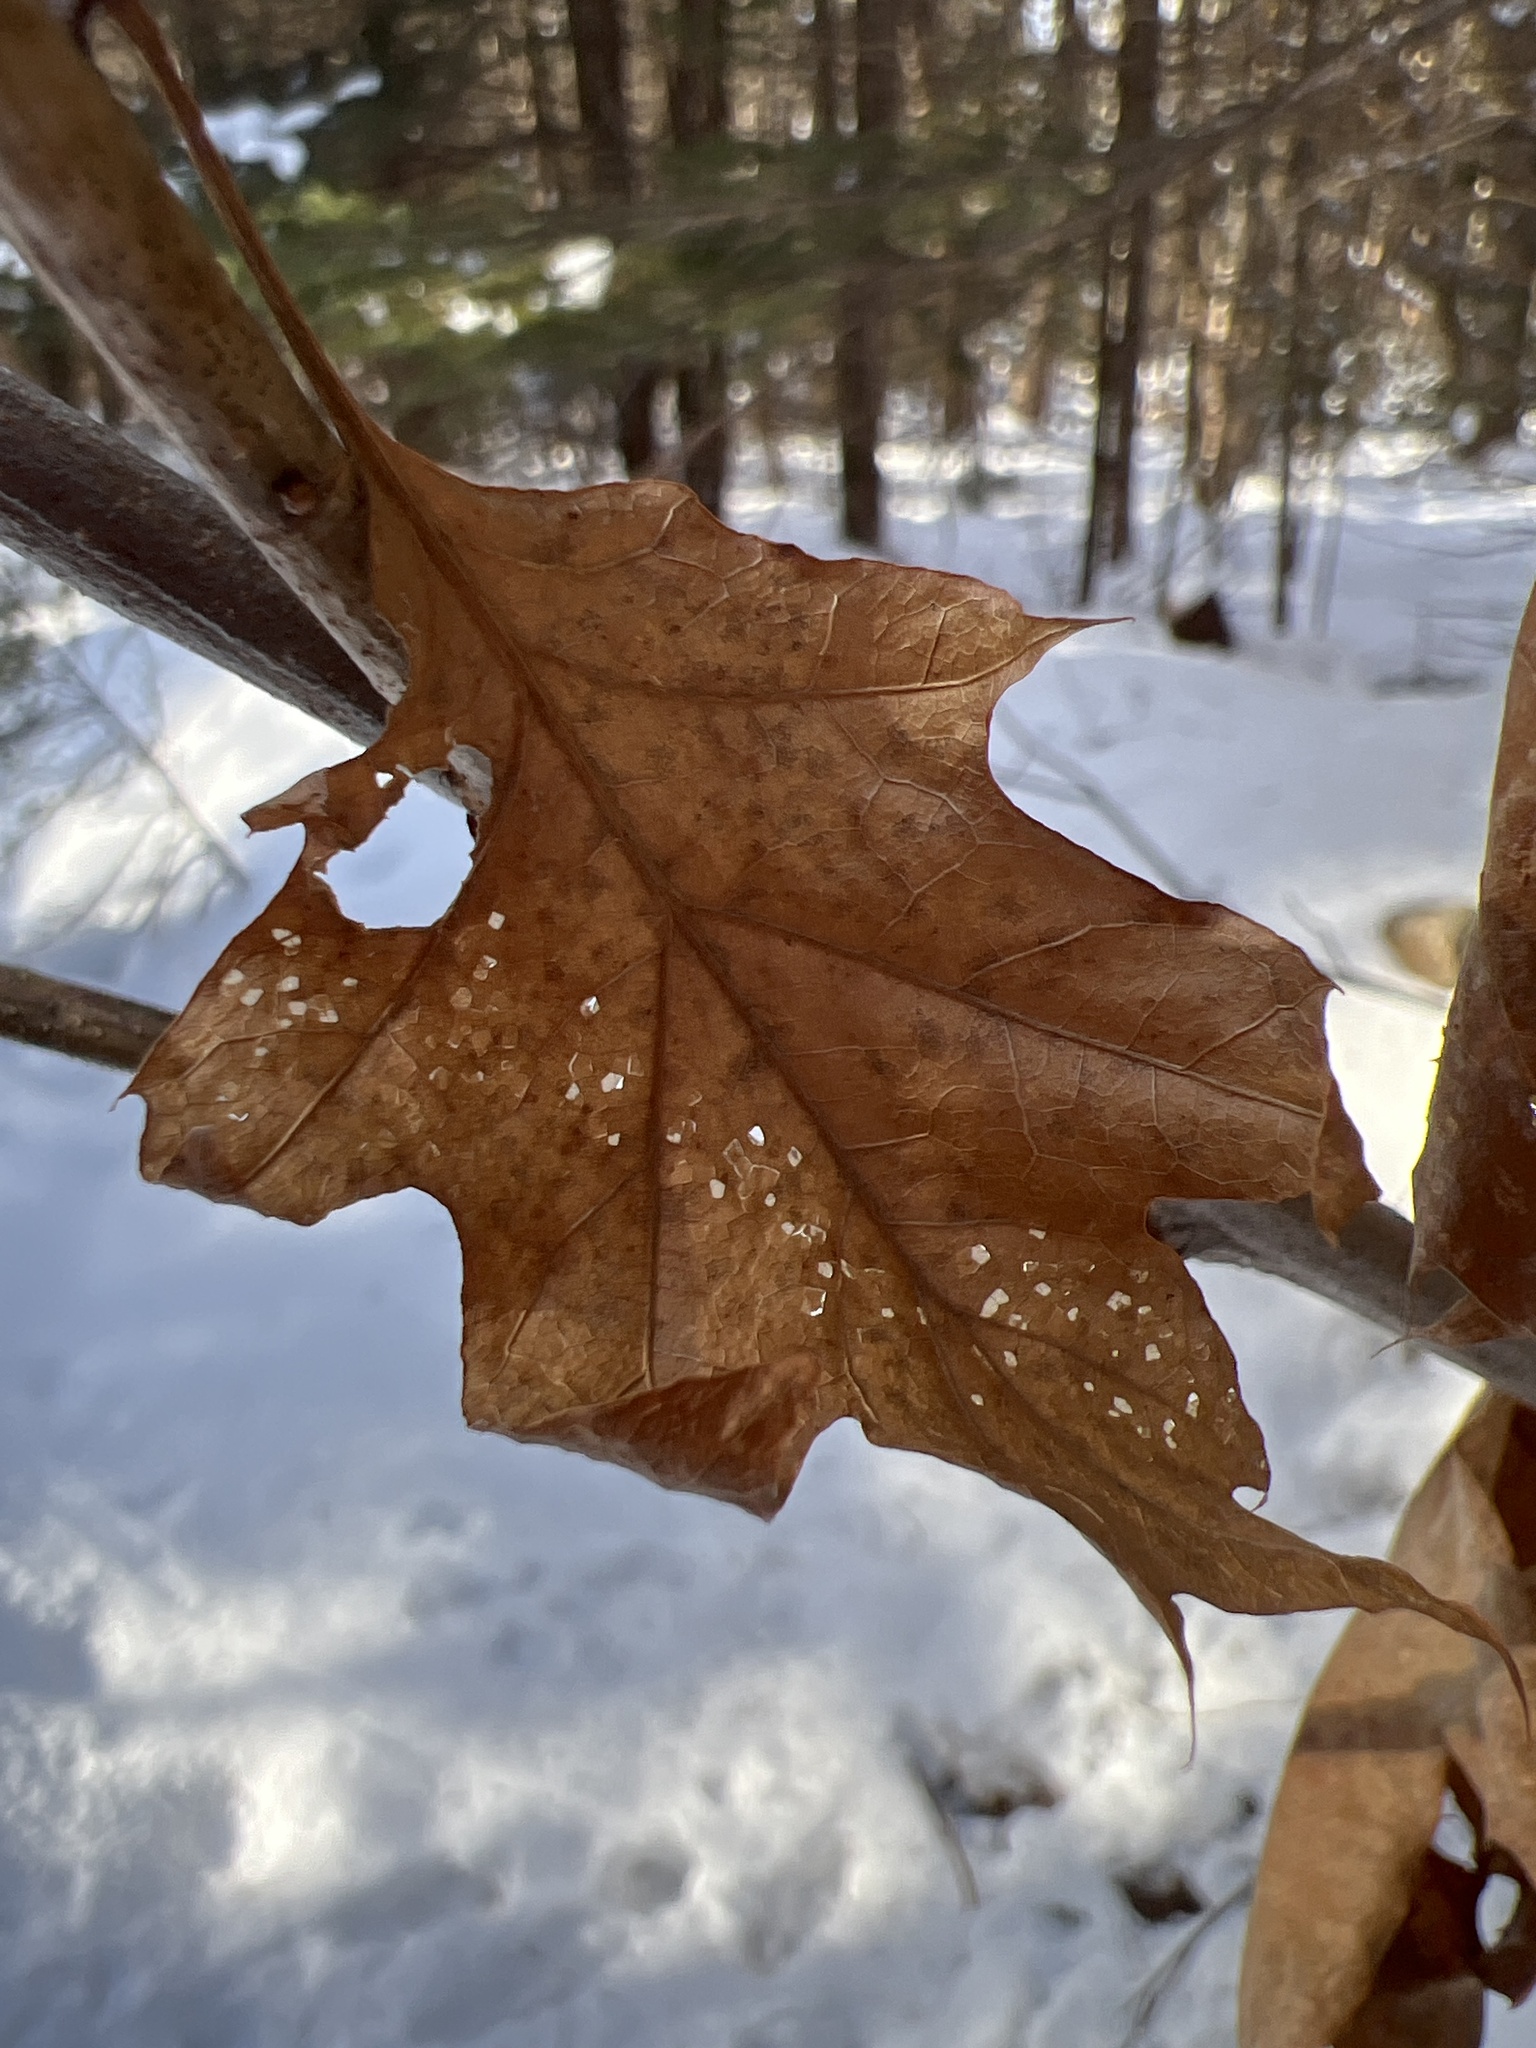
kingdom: Plantae
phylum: Tracheophyta
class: Magnoliopsida
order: Fagales
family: Fagaceae
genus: Quercus
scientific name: Quercus rubra
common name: Red oak
